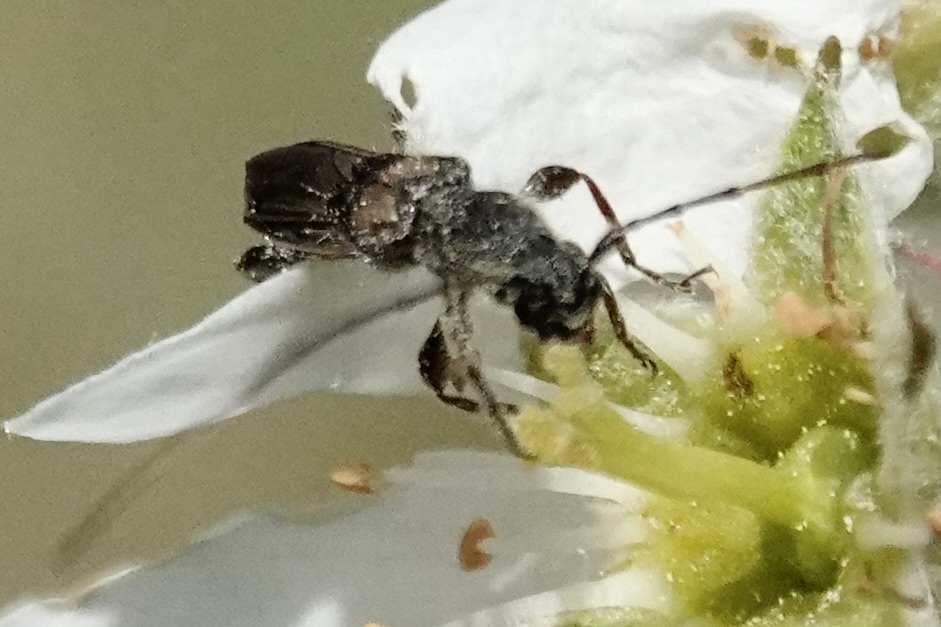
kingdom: Animalia
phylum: Arthropoda
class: Insecta
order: Coleoptera
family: Cerambycidae
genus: Molorchus
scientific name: Molorchus bimaculatus
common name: Bimaculate longhorn beetle
